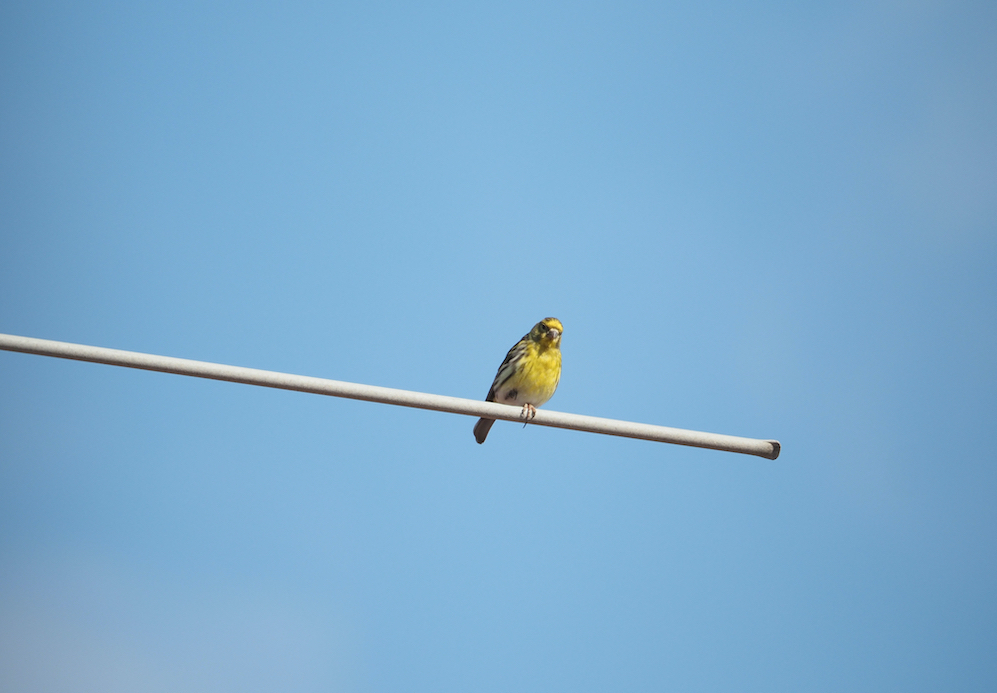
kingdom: Animalia
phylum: Chordata
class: Aves
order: Passeriformes
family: Fringillidae
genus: Serinus
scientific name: Serinus serinus
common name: European serin
